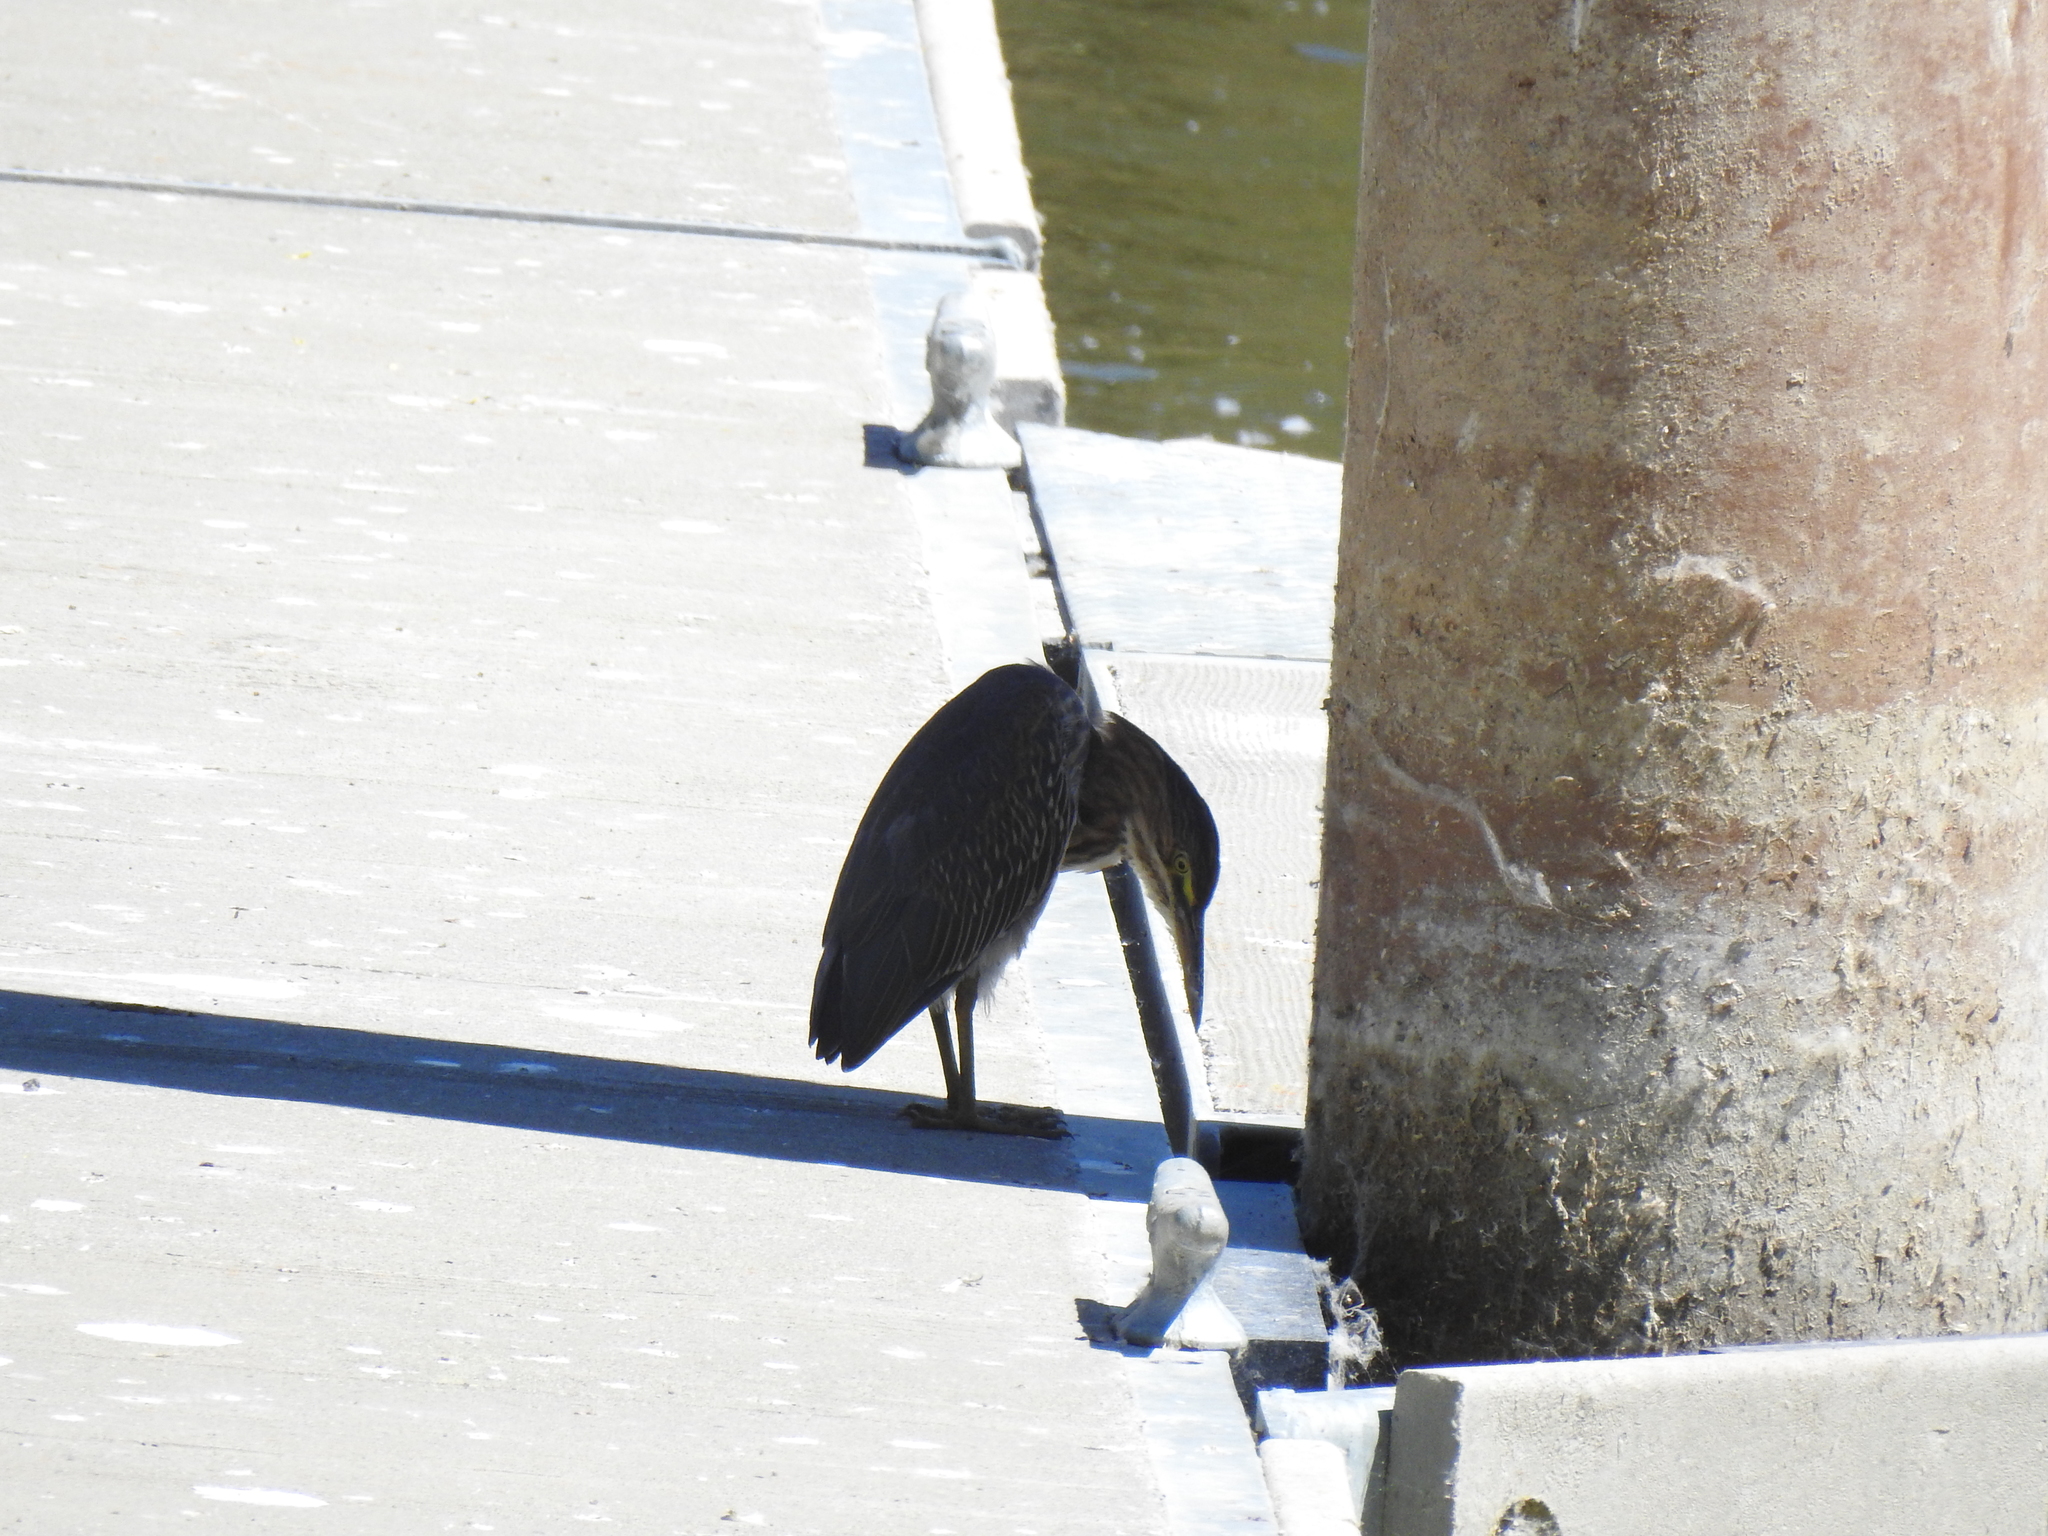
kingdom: Animalia
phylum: Chordata
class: Aves
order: Pelecaniformes
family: Ardeidae
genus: Butorides
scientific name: Butorides virescens
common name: Green heron
